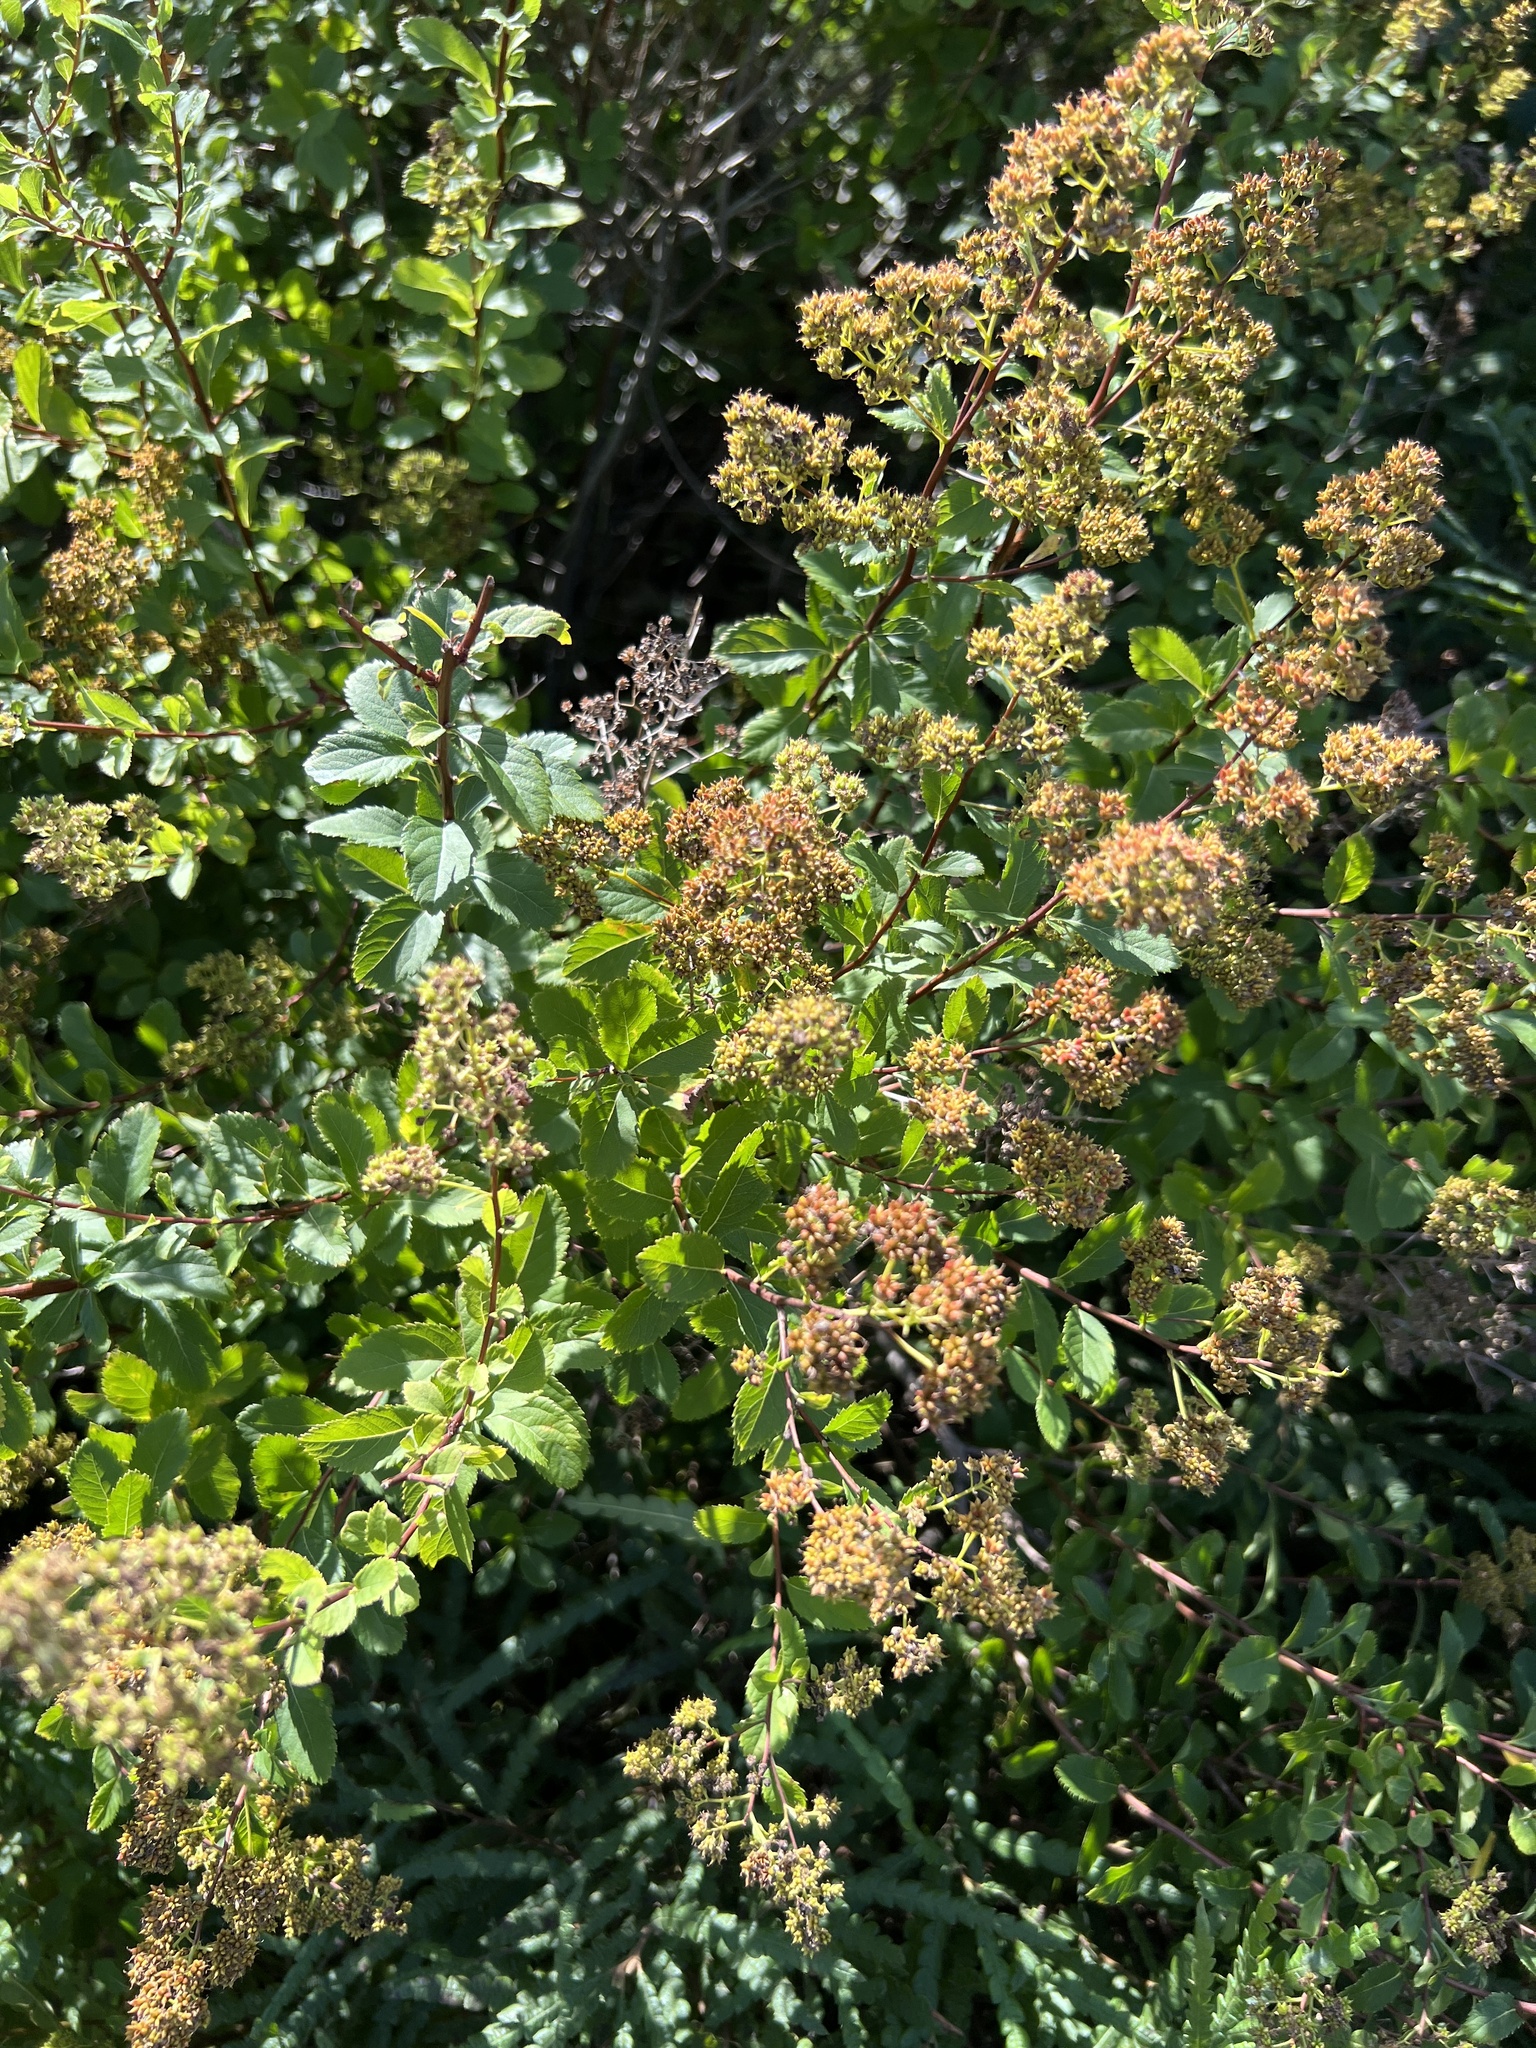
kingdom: Plantae
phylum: Tracheophyta
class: Magnoliopsida
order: Rosales
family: Rosaceae
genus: Spiraea
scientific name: Spiraea alba
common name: Pale bridewort
